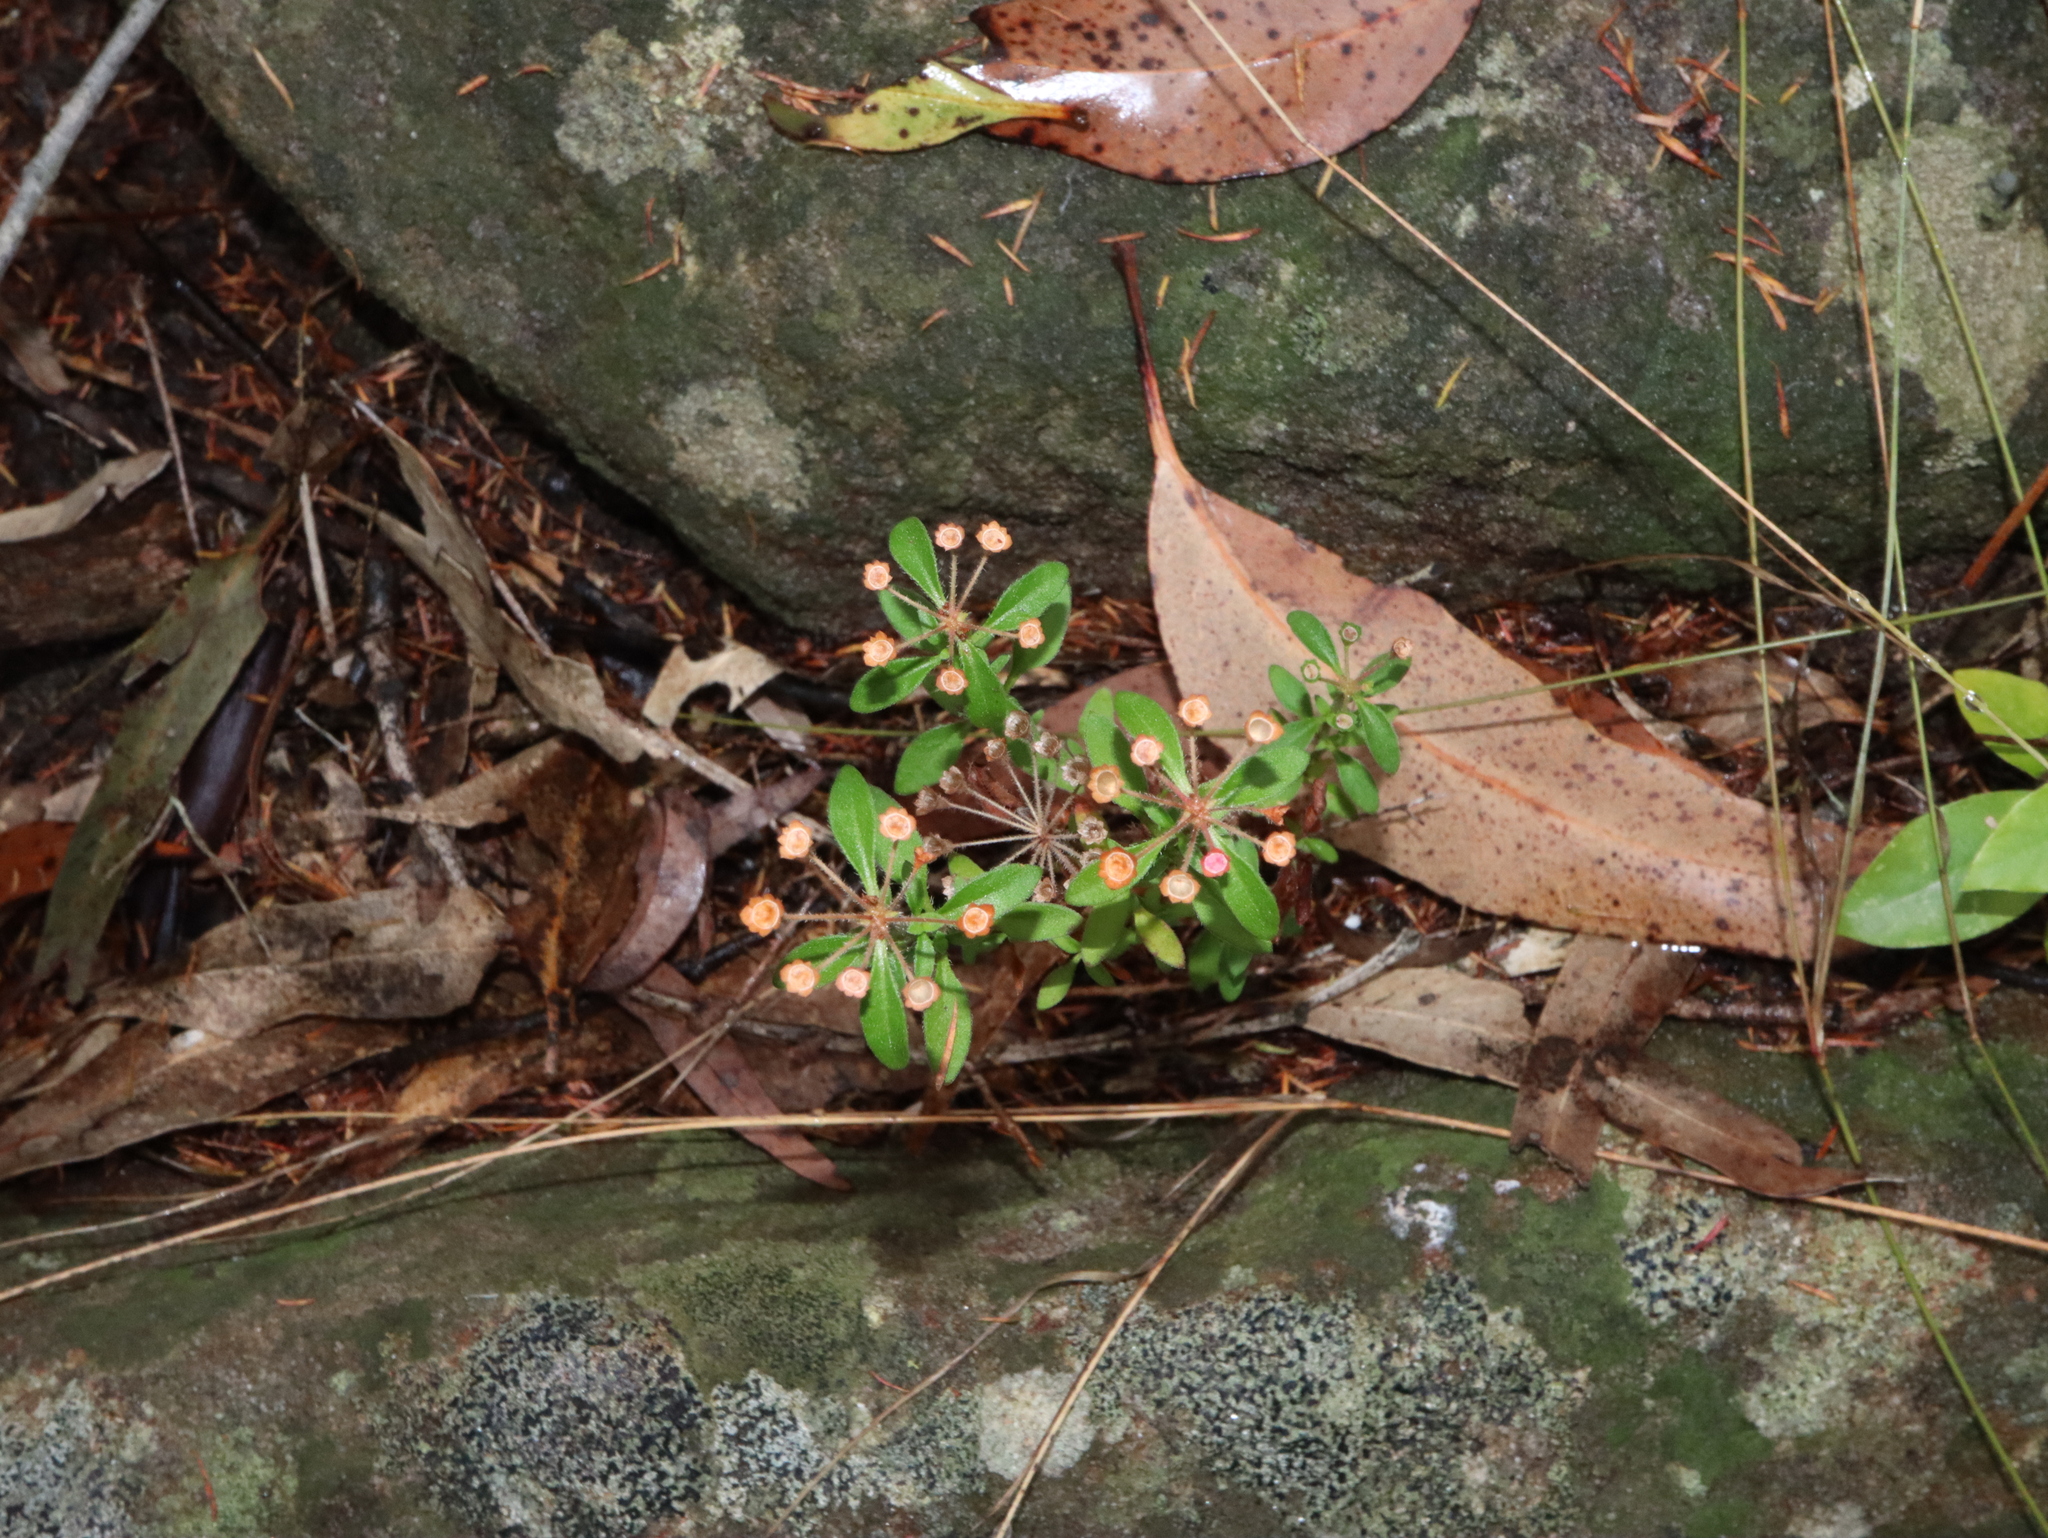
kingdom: Plantae
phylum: Tracheophyta
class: Magnoliopsida
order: Gentianales
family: Rubiaceae
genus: Pomax
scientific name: Pomax umbellata
